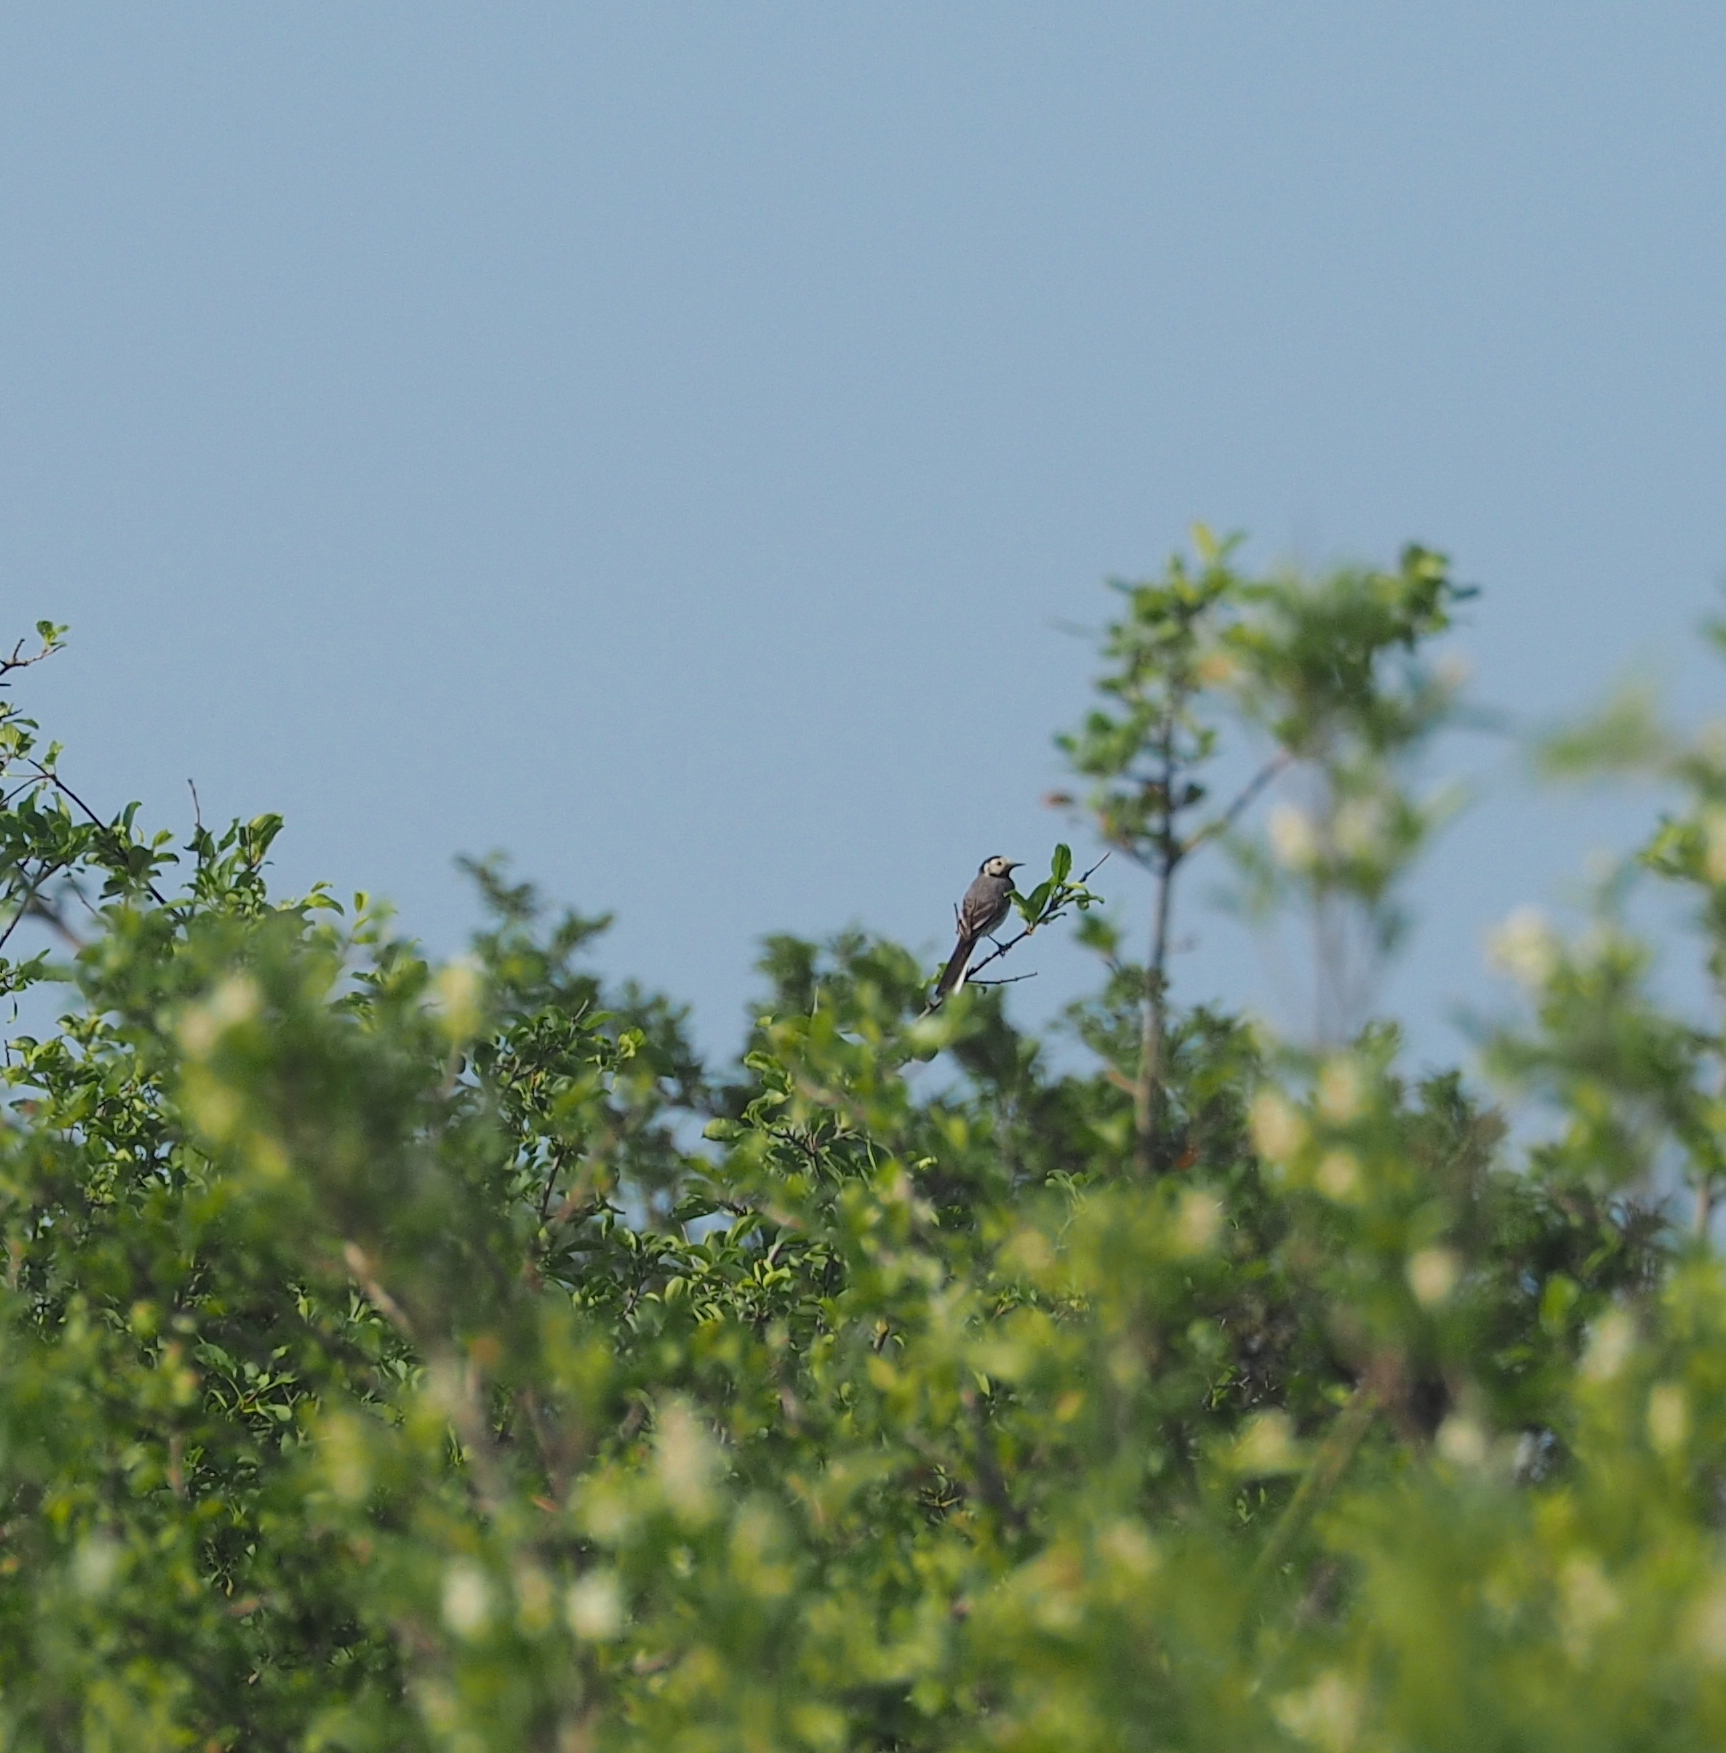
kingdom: Animalia
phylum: Chordata
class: Aves
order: Passeriformes
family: Motacillidae
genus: Motacilla
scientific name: Motacilla alba
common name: White wagtail
